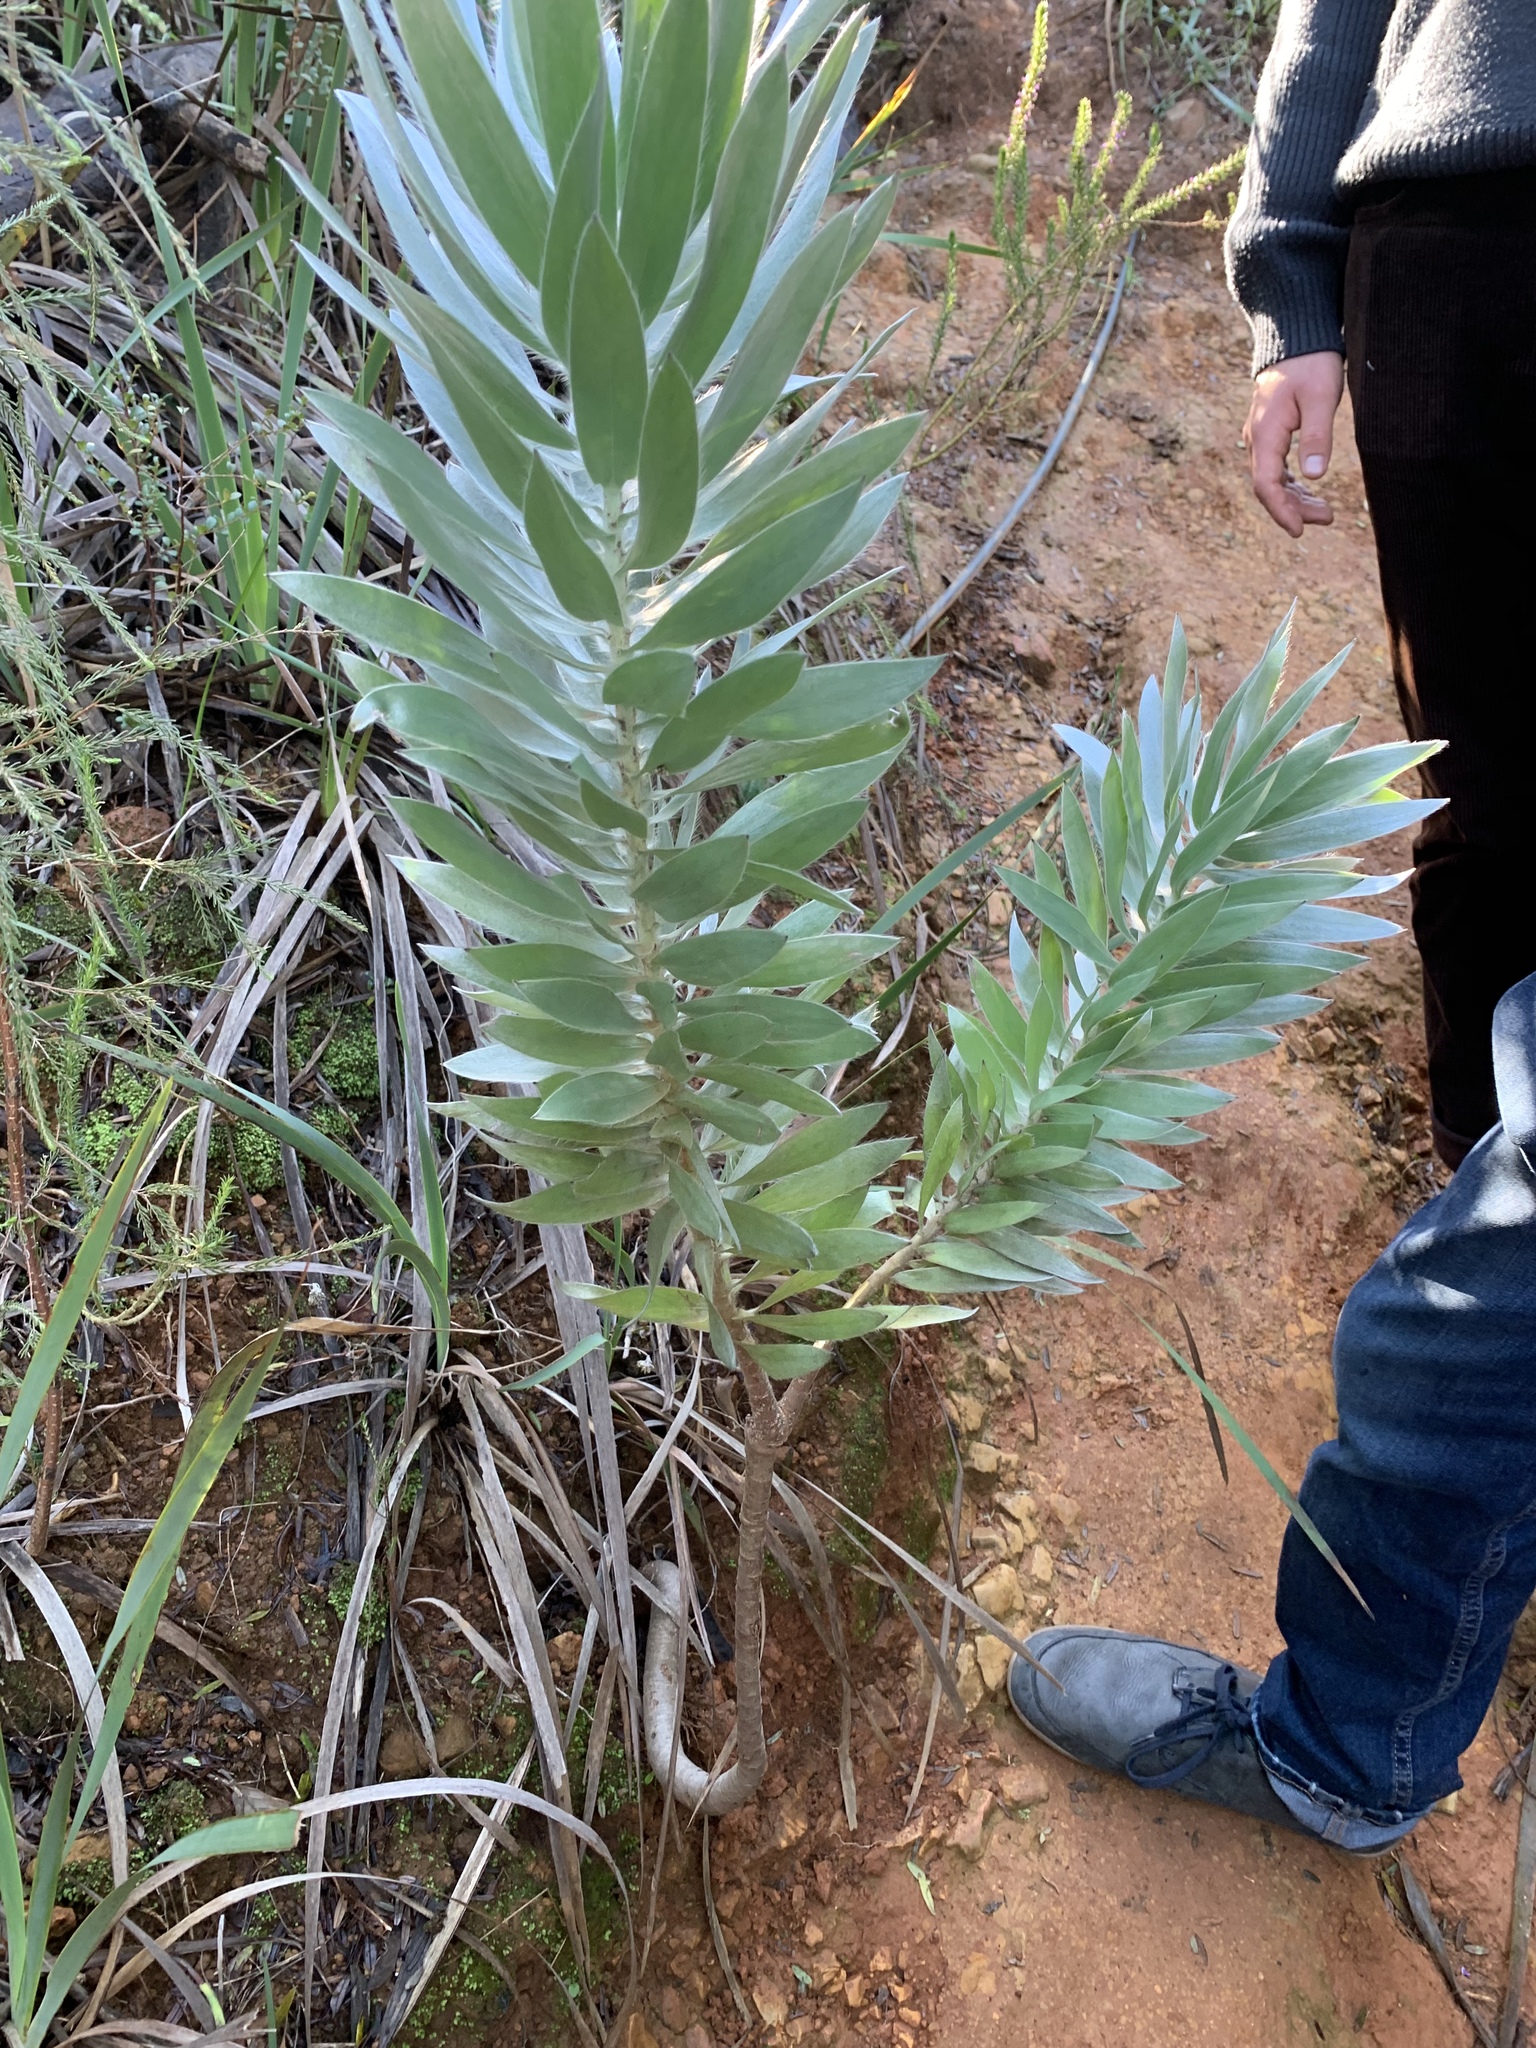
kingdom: Plantae
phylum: Tracheophyta
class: Magnoliopsida
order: Proteales
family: Proteaceae
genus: Leucadendron
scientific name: Leucadendron argenteum
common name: Cape silver tree
